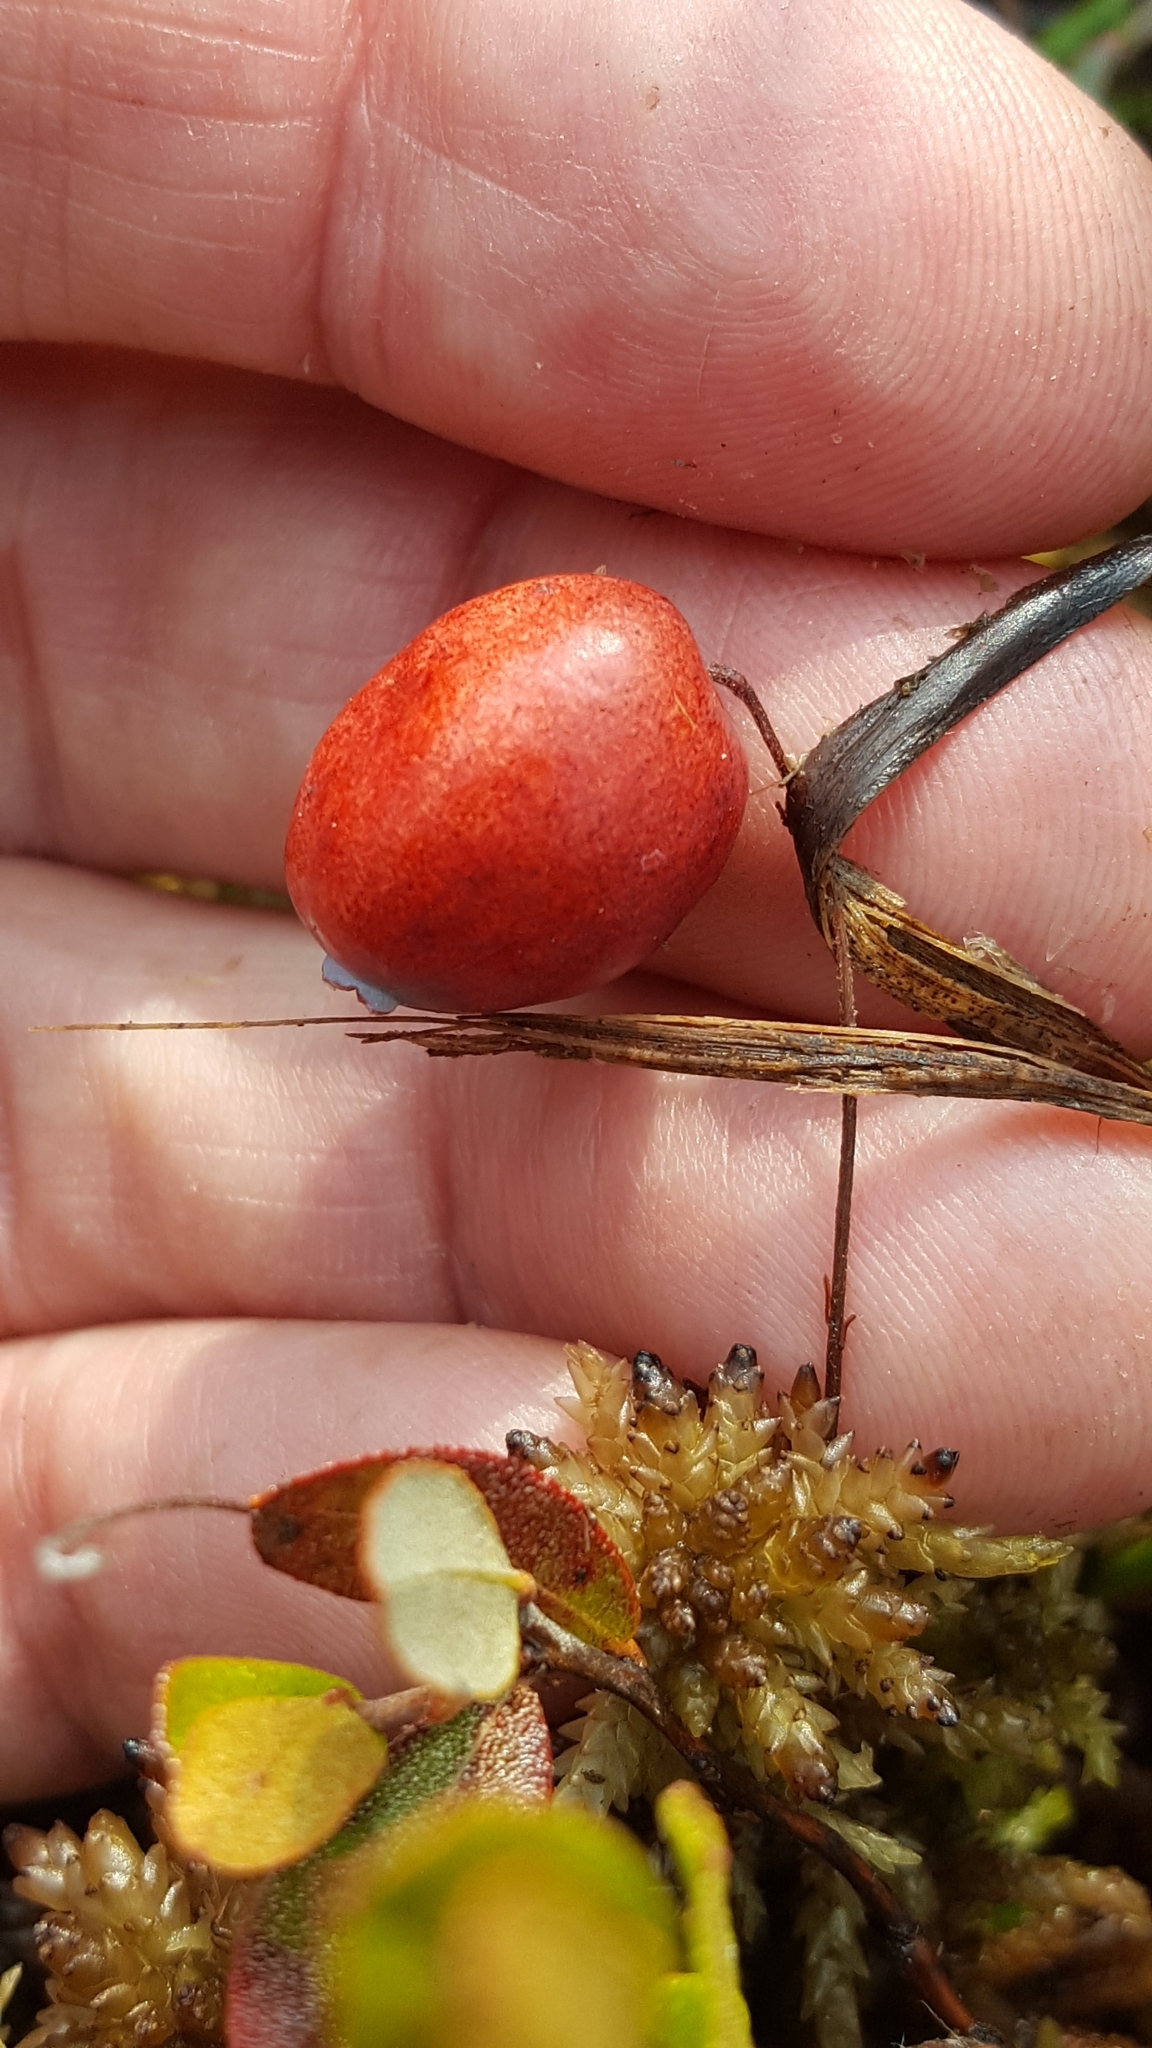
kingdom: Plantae
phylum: Tracheophyta
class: Magnoliopsida
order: Ericales
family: Ericaceae
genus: Vaccinium
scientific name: Vaccinium oxycoccos
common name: Cranberry
